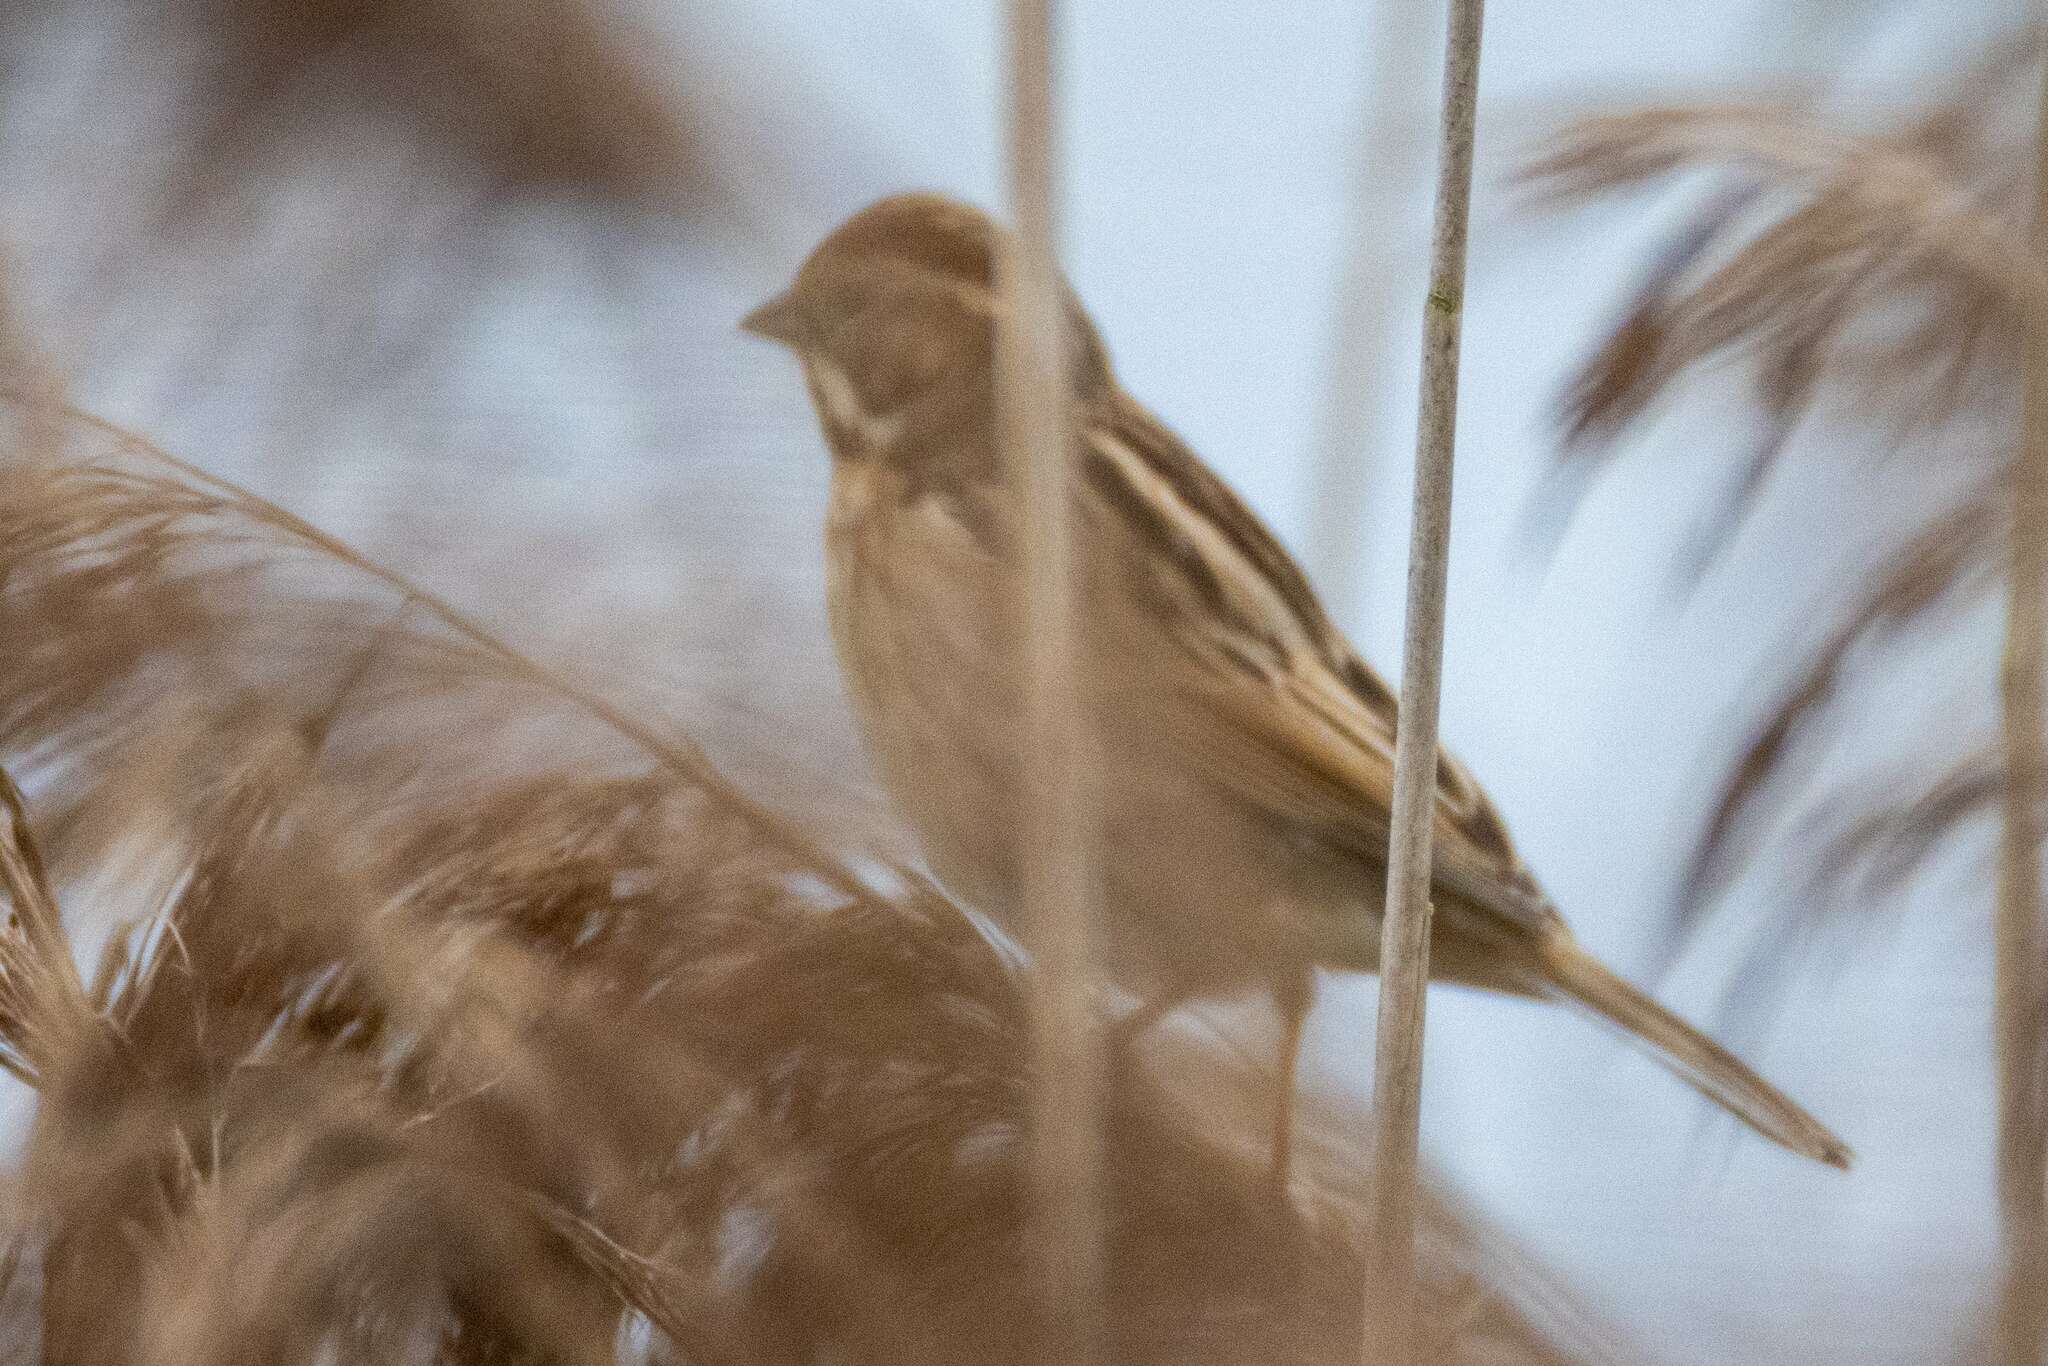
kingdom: Animalia
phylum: Chordata
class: Aves
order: Passeriformes
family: Emberizidae
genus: Emberiza
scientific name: Emberiza schoeniclus
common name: Reed bunting
